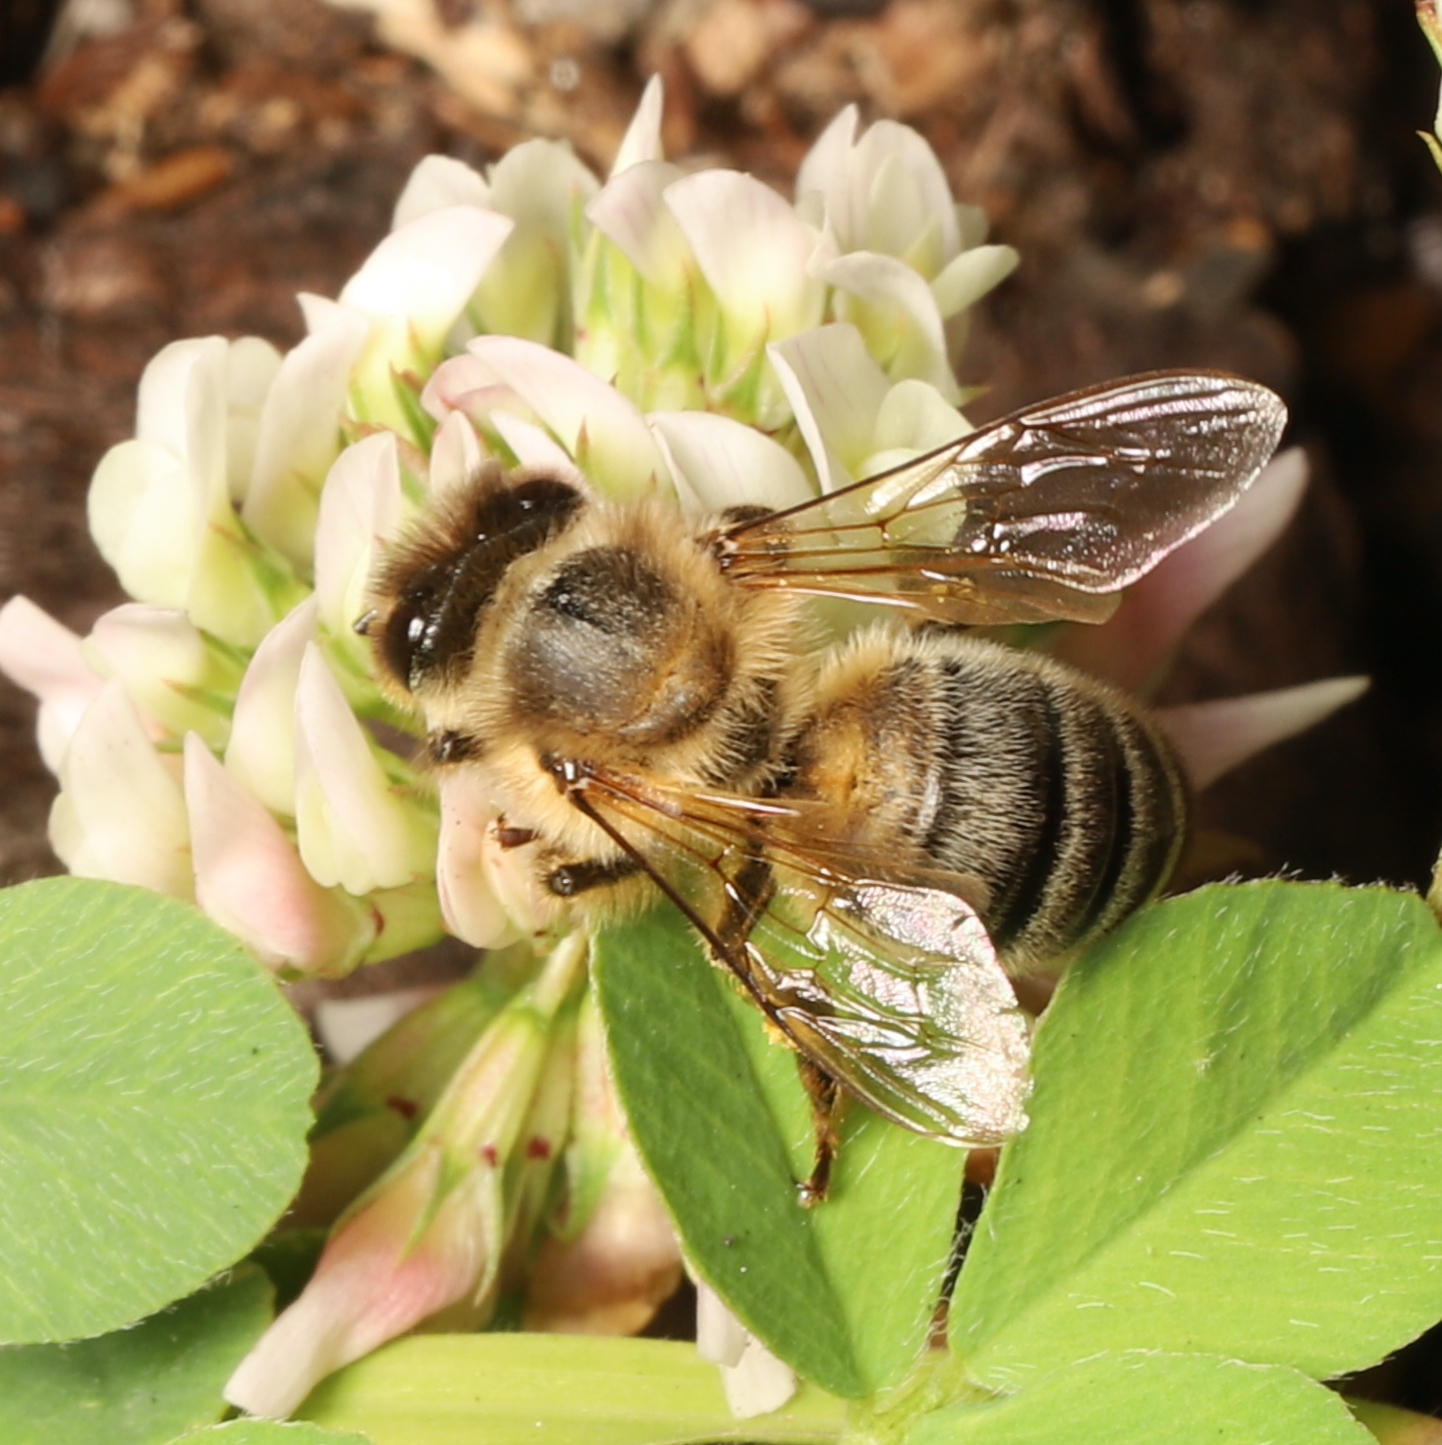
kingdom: Animalia
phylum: Arthropoda
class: Insecta
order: Hymenoptera
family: Apidae
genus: Apis
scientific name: Apis mellifera
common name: Honey bee
